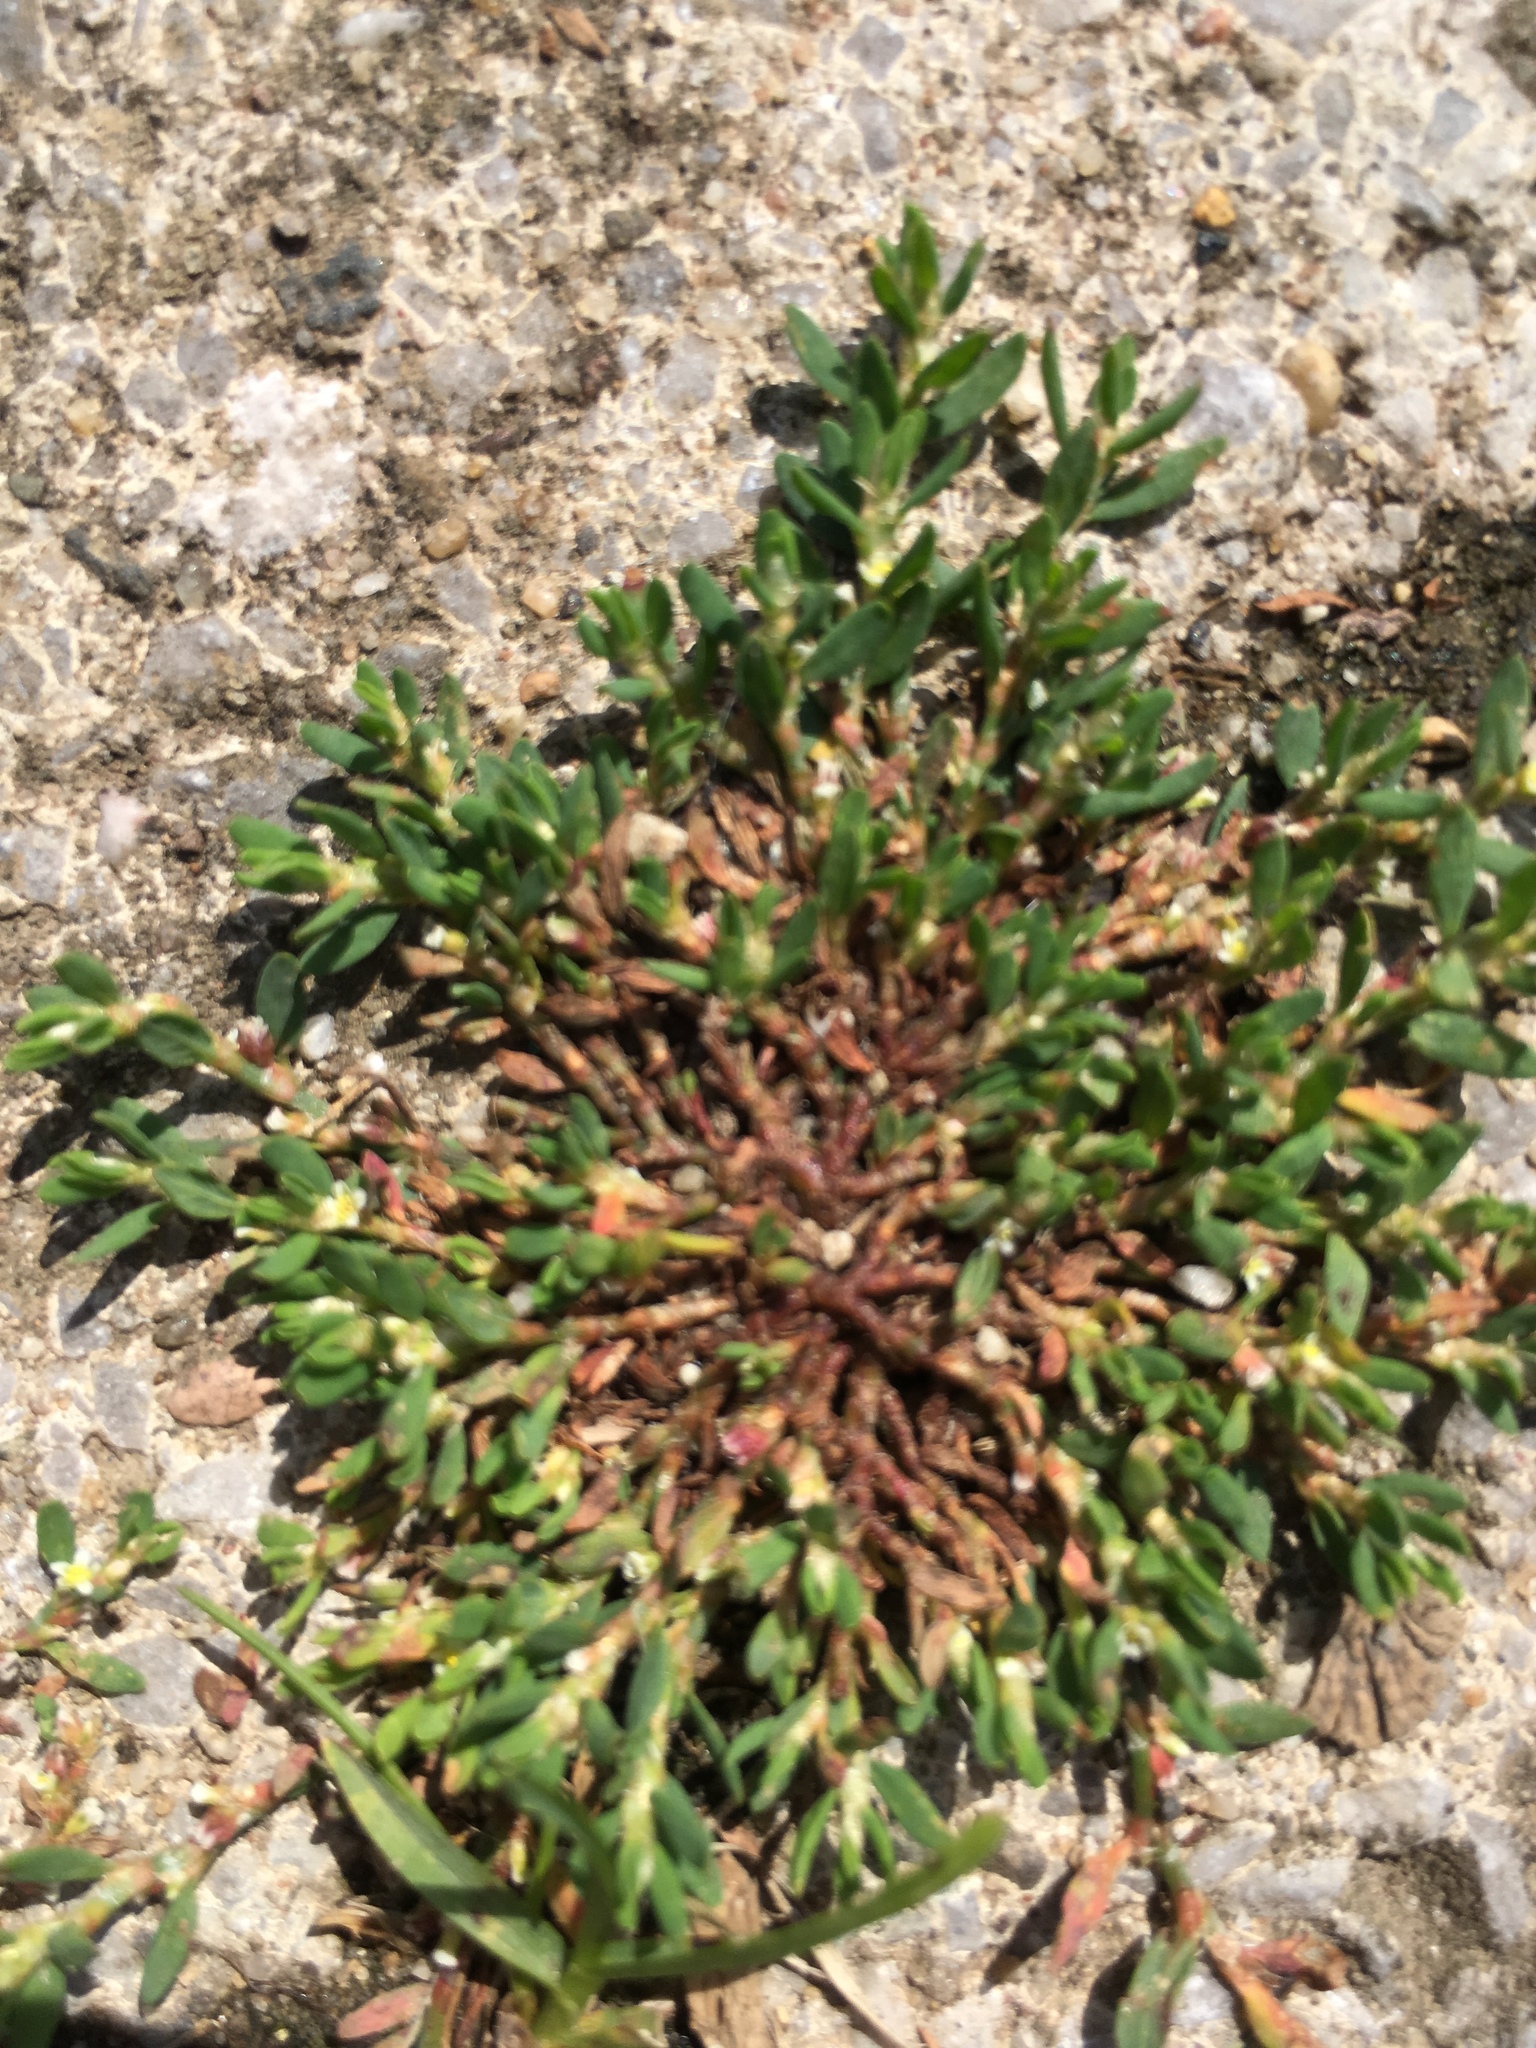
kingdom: Plantae
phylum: Tracheophyta
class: Magnoliopsida
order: Caryophyllales
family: Polygonaceae
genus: Polygonum
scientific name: Polygonum arenastrum
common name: Equal-leaved knotgrass
